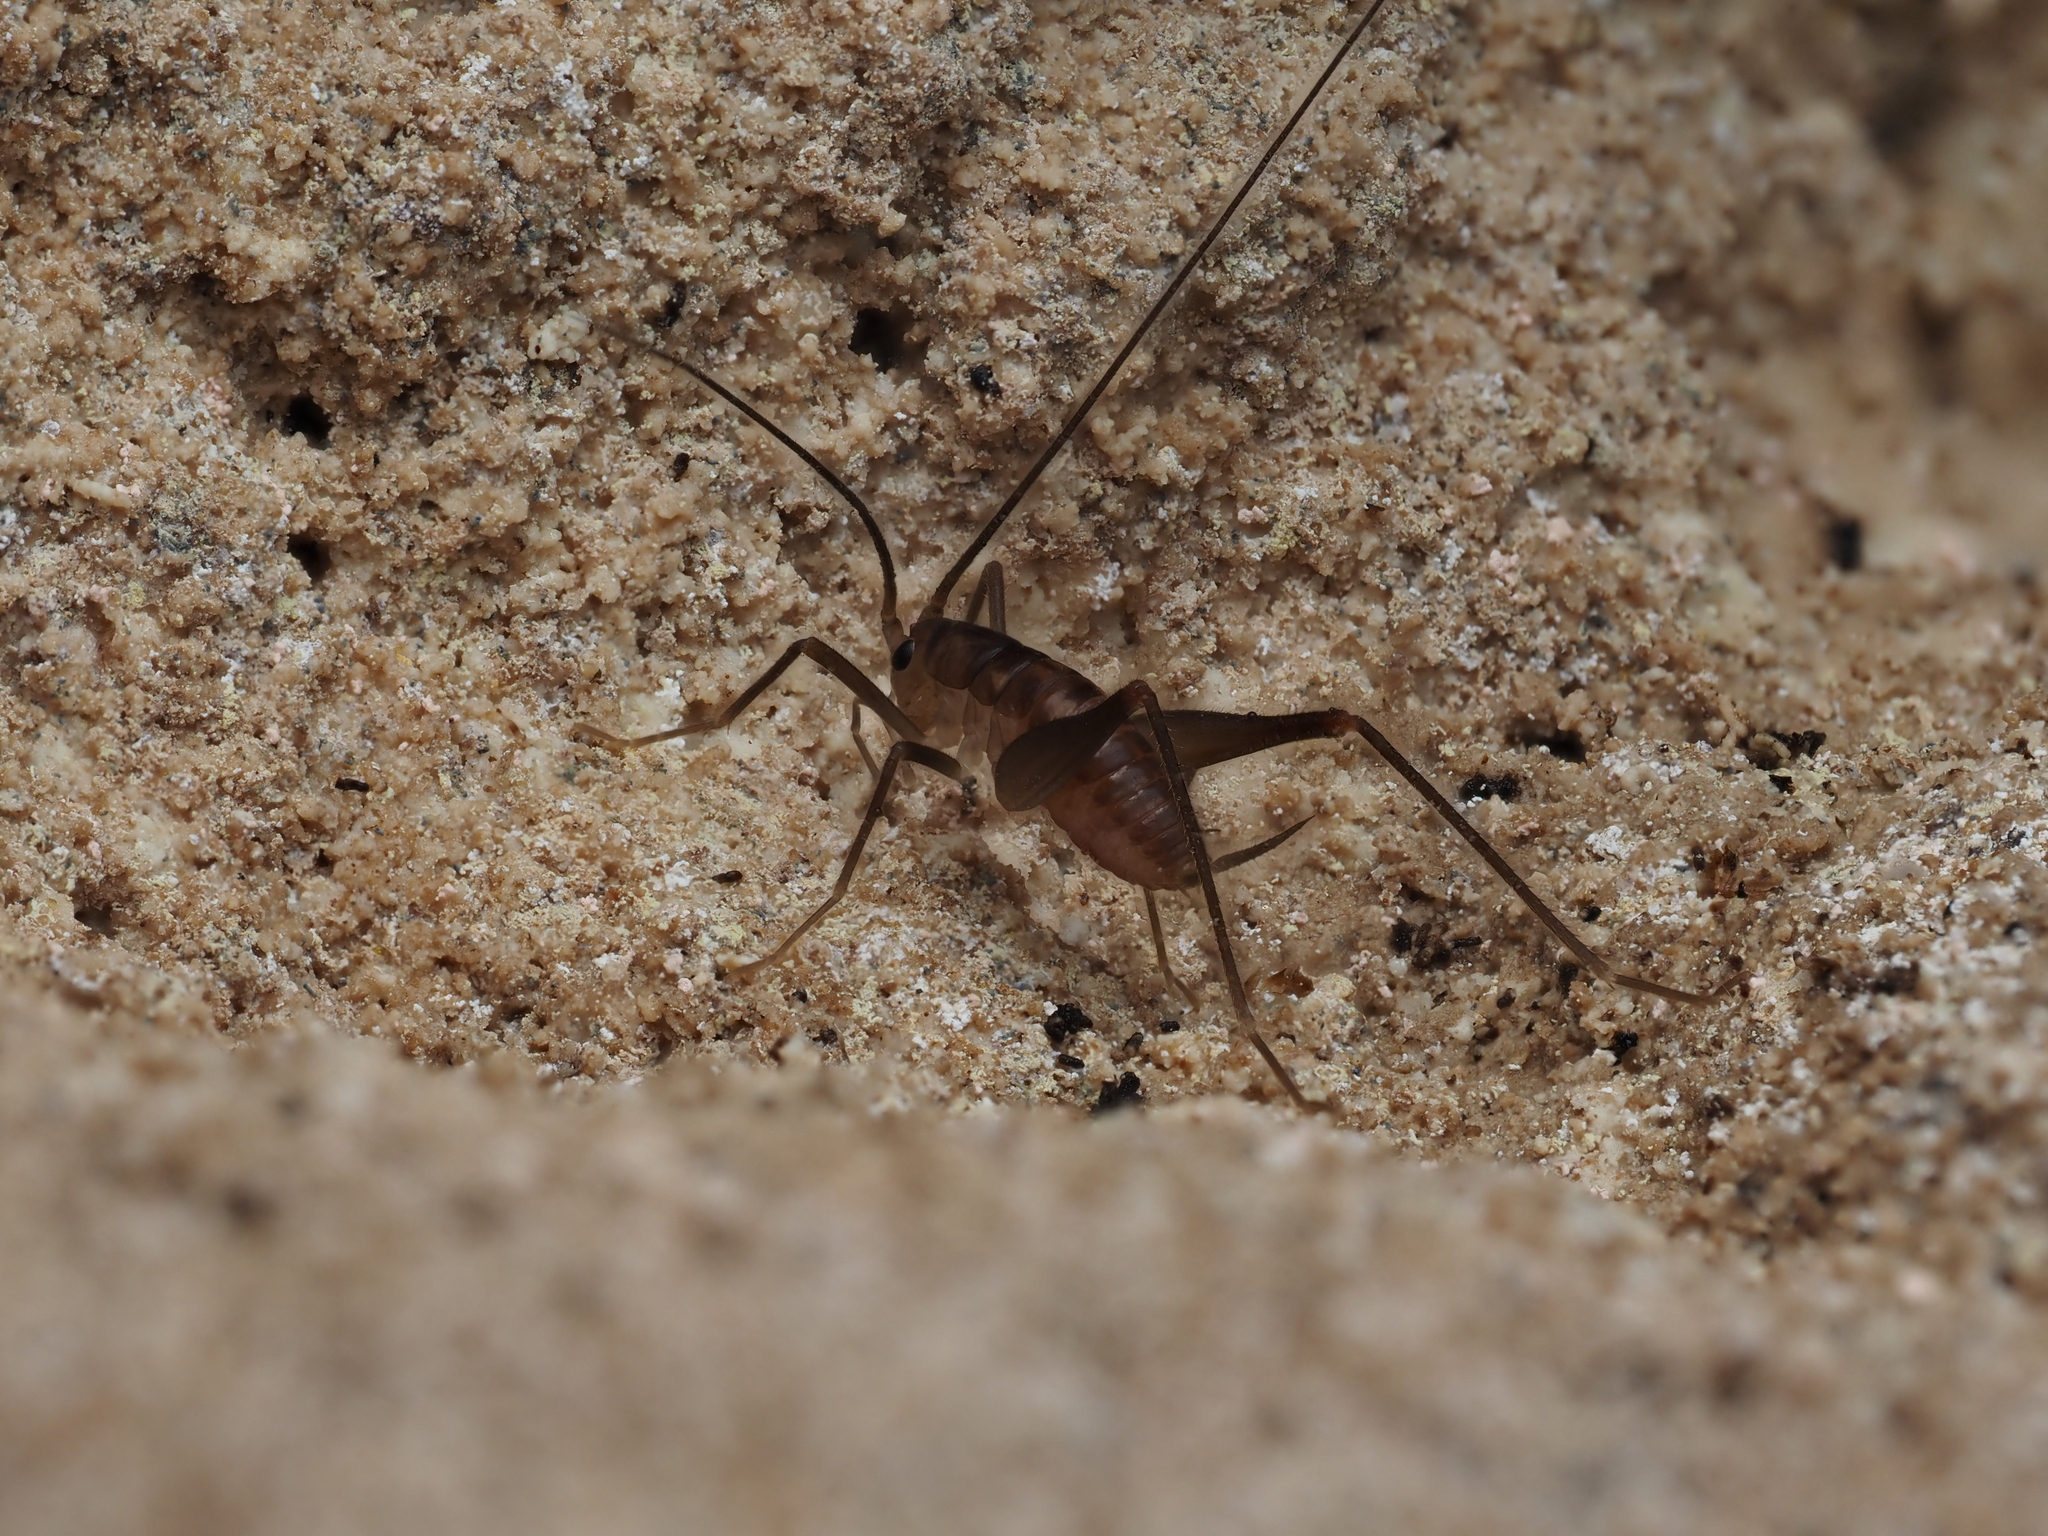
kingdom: Animalia
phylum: Arthropoda
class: Insecta
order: Orthoptera
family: Rhaphidophoridae
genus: Macropathus
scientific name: Macropathus filifer
